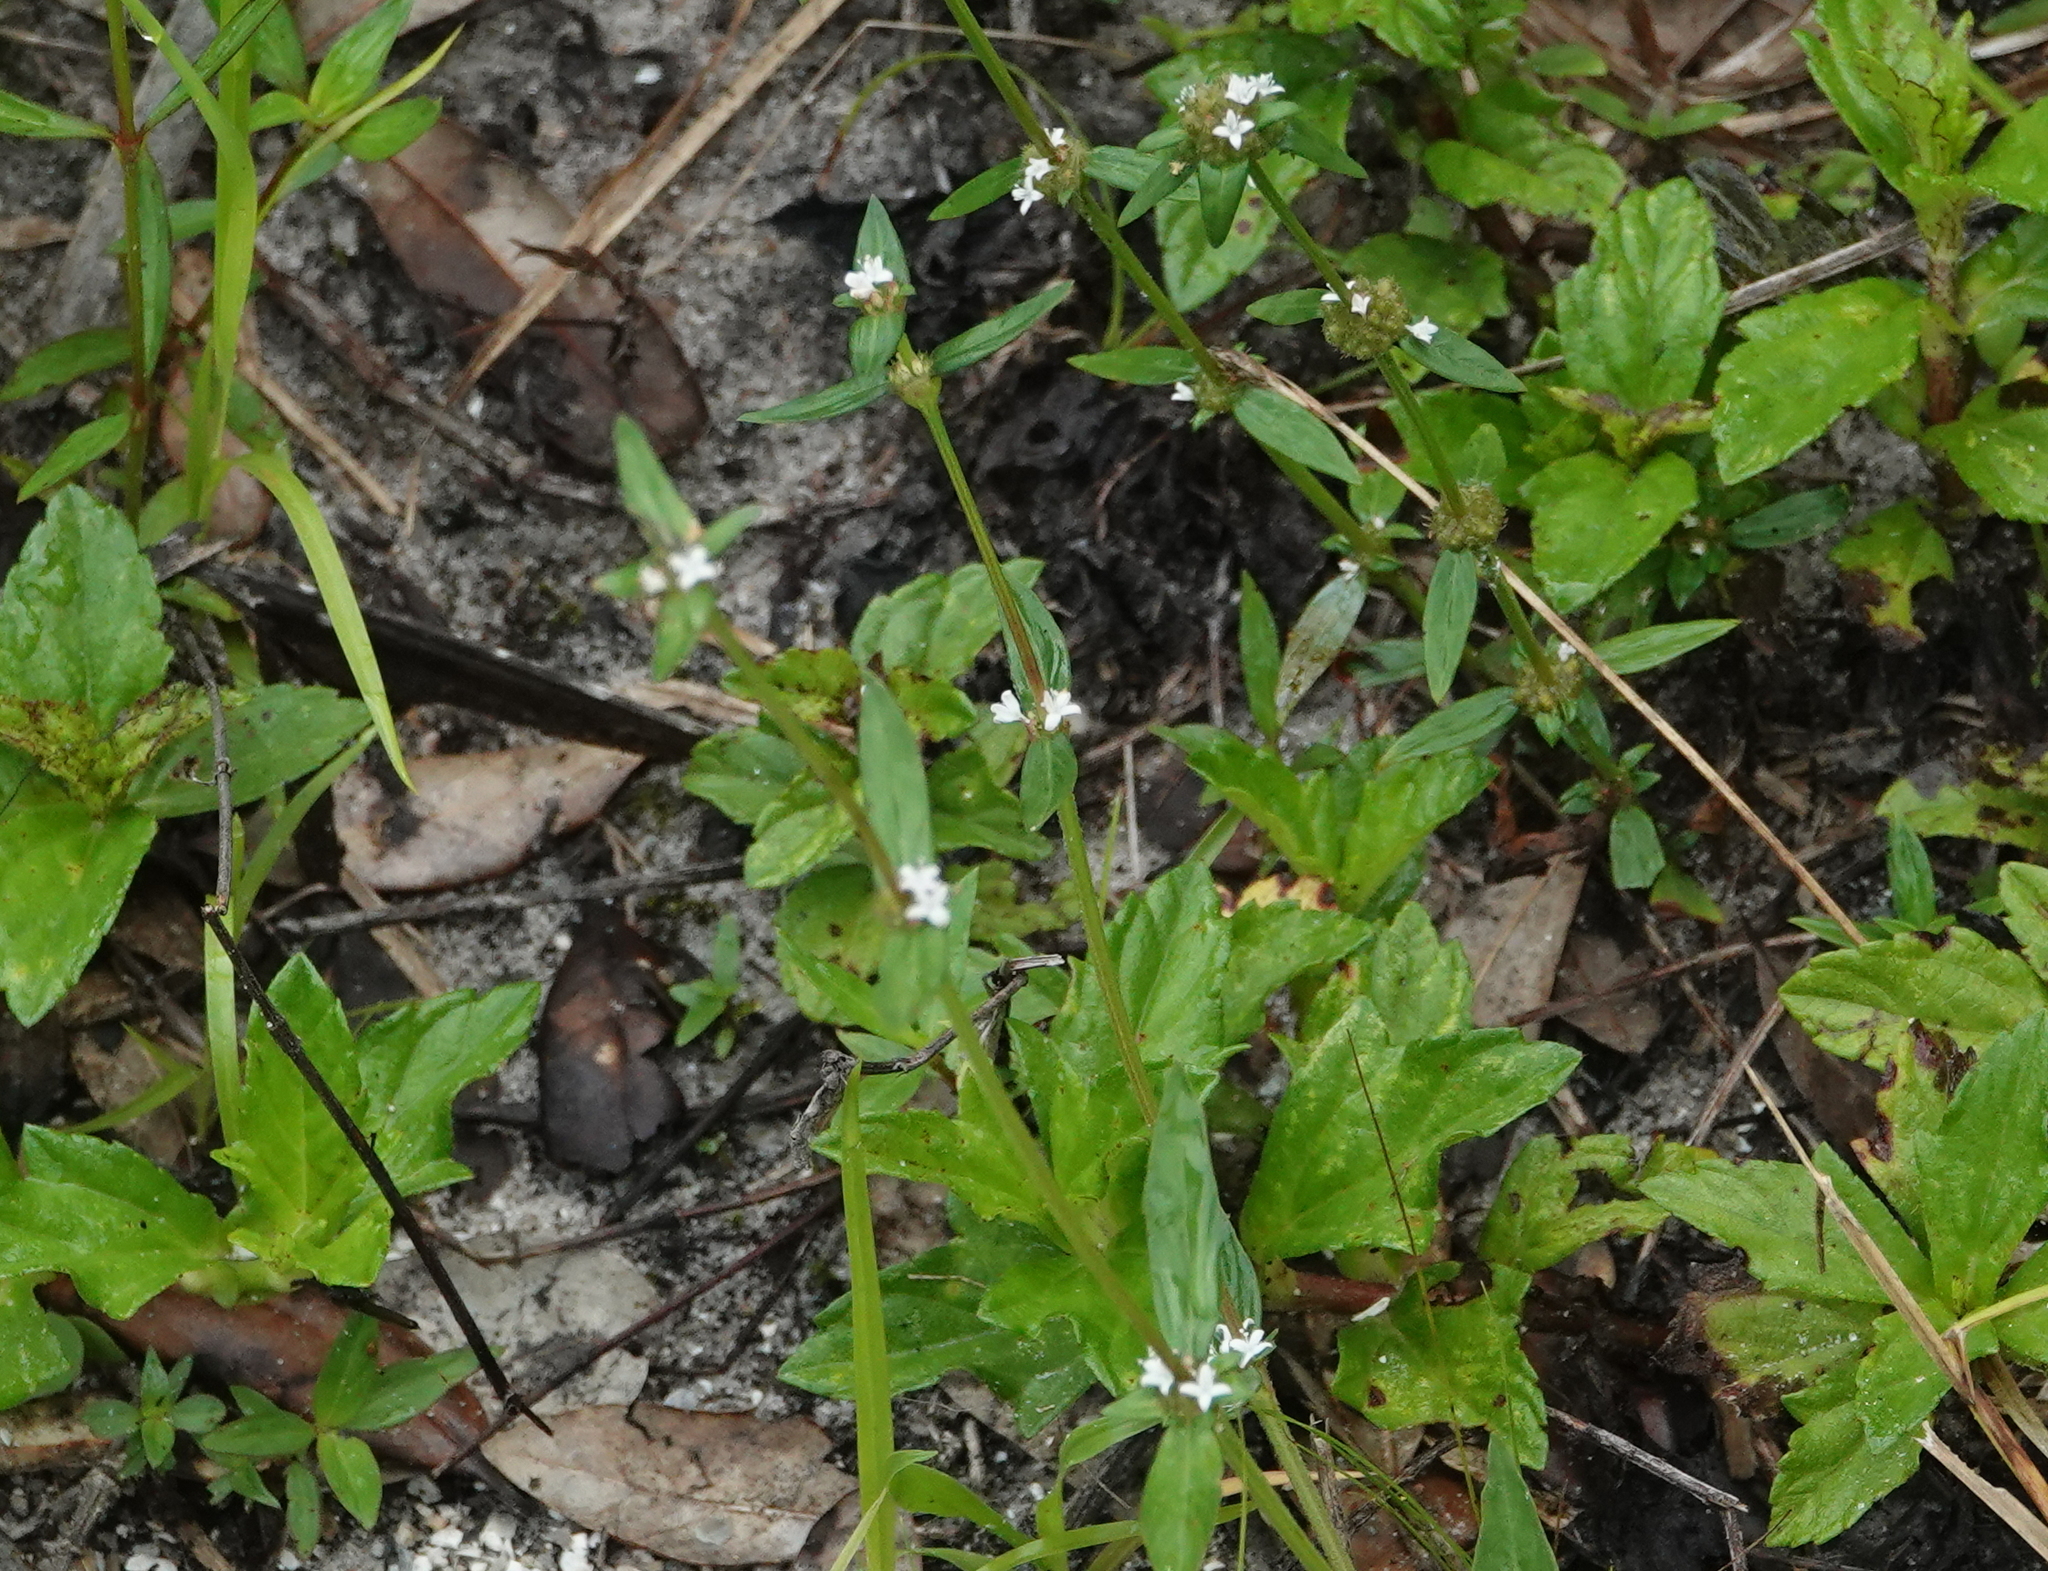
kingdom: Plantae
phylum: Tracheophyta
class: Magnoliopsida
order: Gentianales
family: Rubiaceae
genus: Spermacoce
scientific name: Spermacoce remota
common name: Woodland false buttonweed
